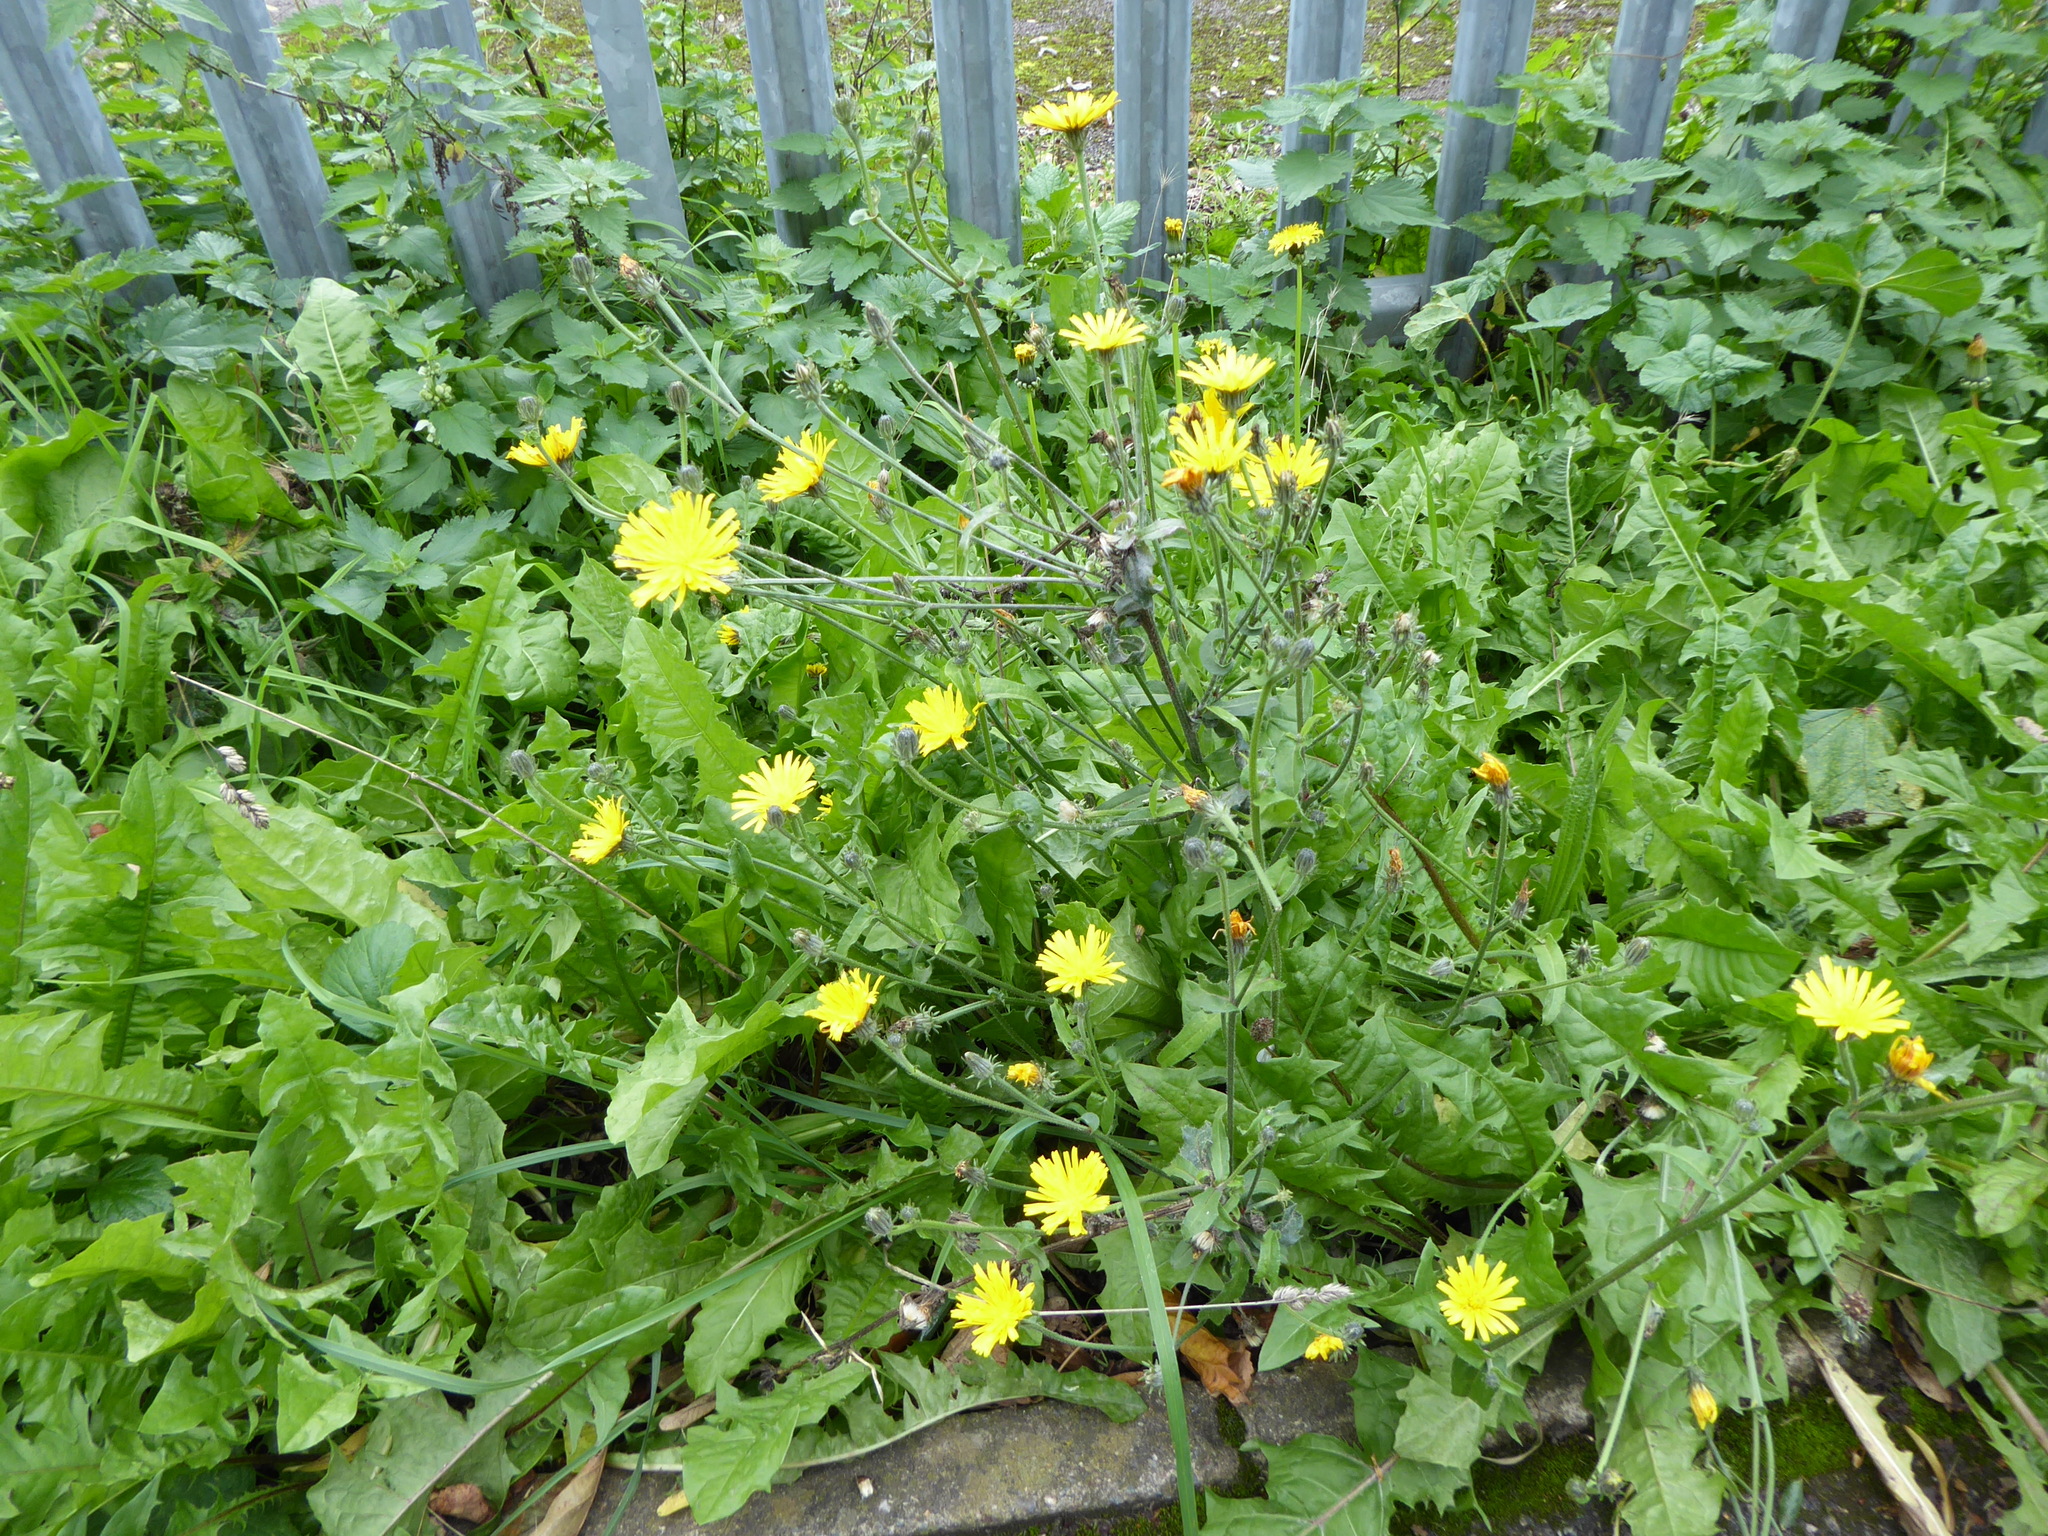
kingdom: Plantae
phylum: Tracheophyta
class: Magnoliopsida
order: Asterales
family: Asteraceae
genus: Picris
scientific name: Picris hieracioides
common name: Hawkweed oxtongue
